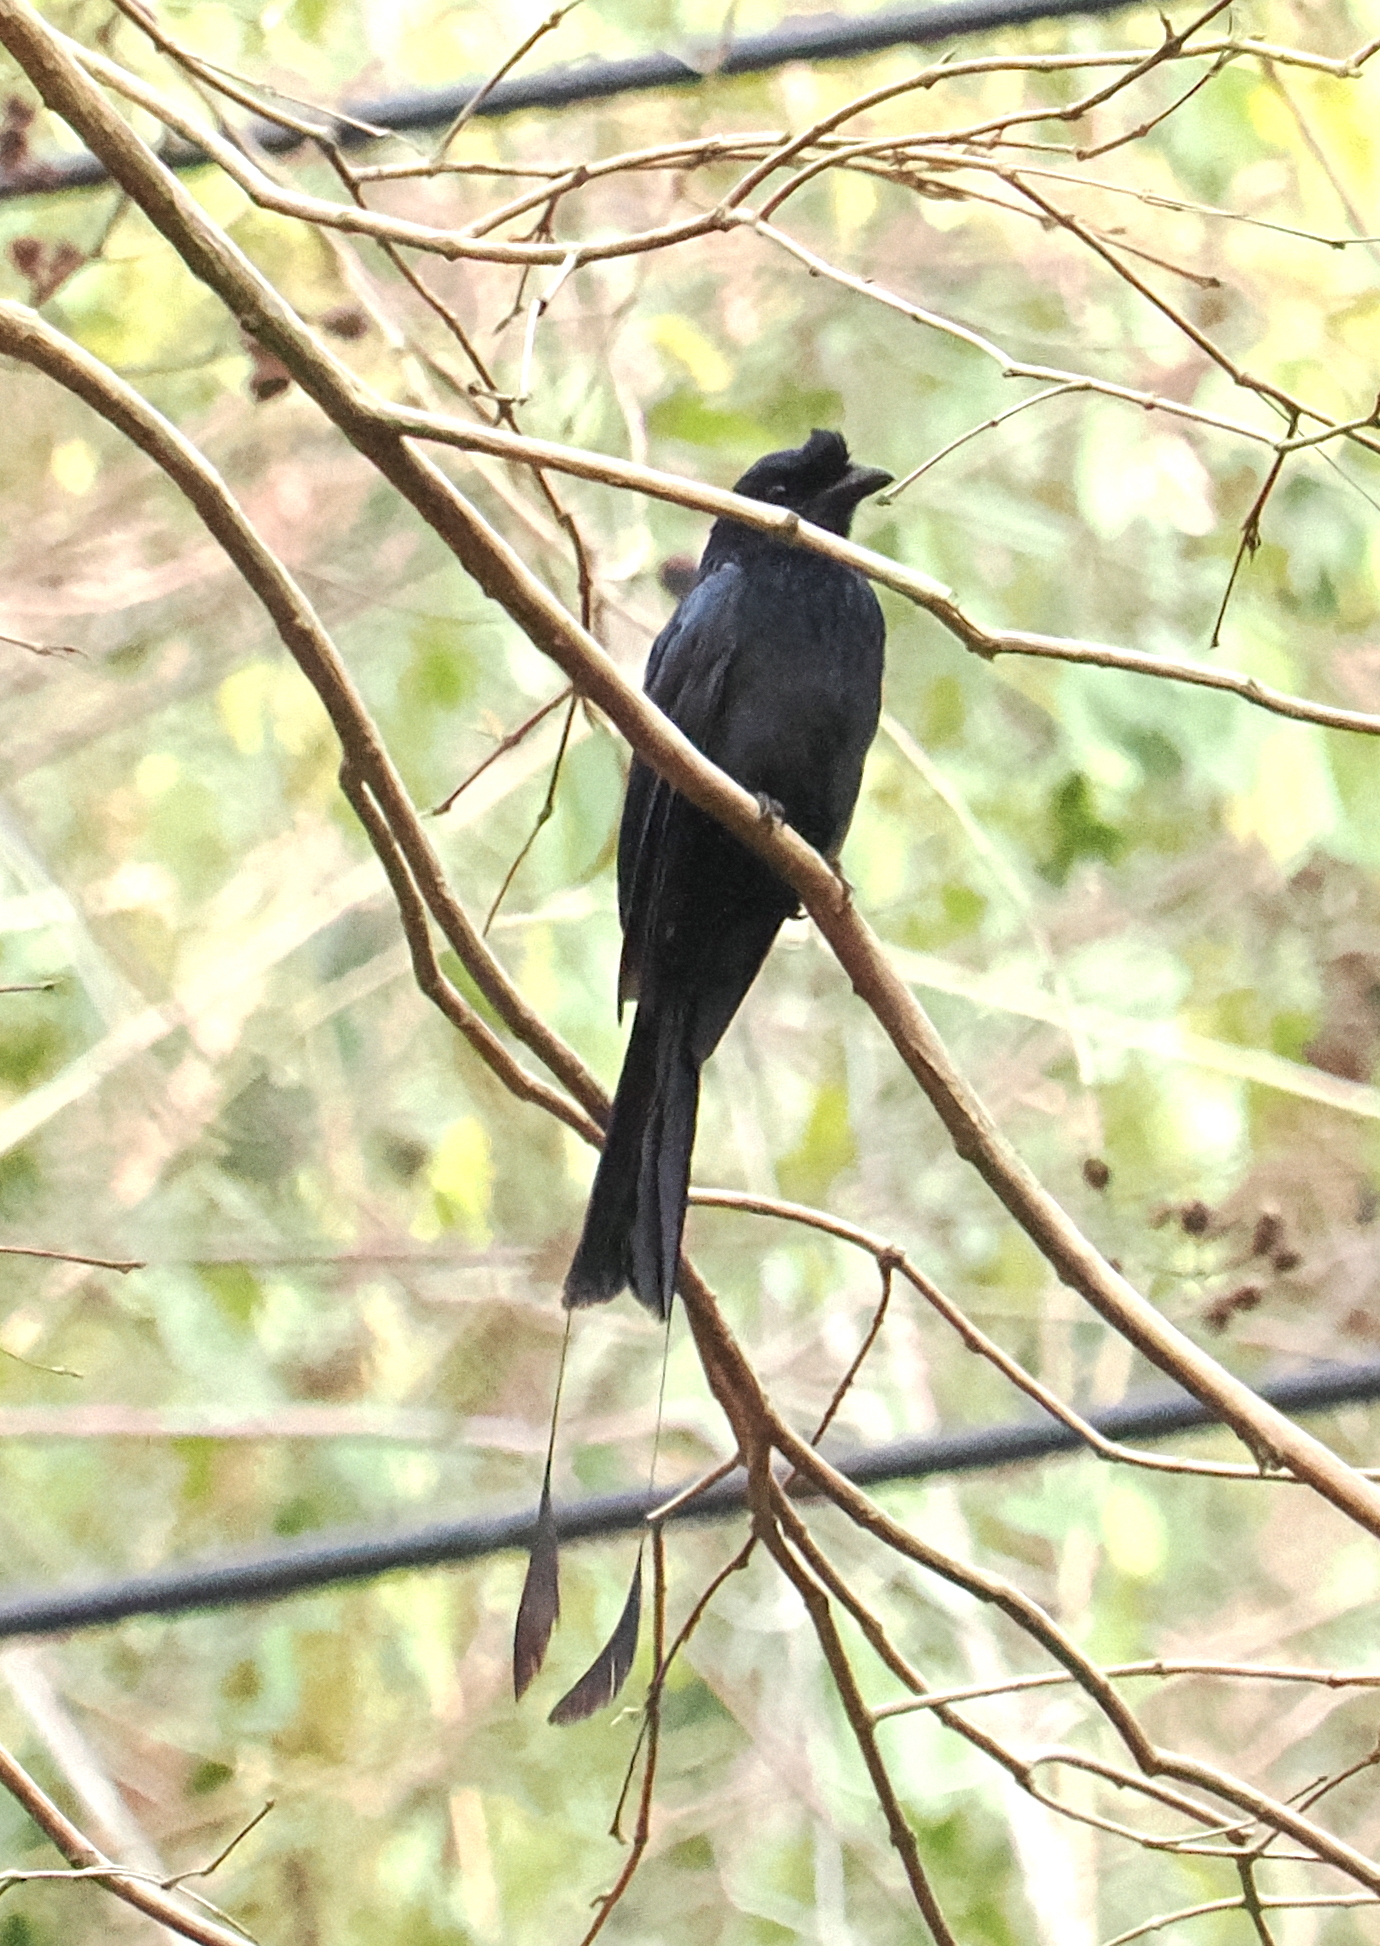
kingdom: Animalia
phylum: Chordata
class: Aves
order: Passeriformes
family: Dicruridae
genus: Dicrurus
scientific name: Dicrurus paradiseus
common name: Greater racket-tailed drongo
